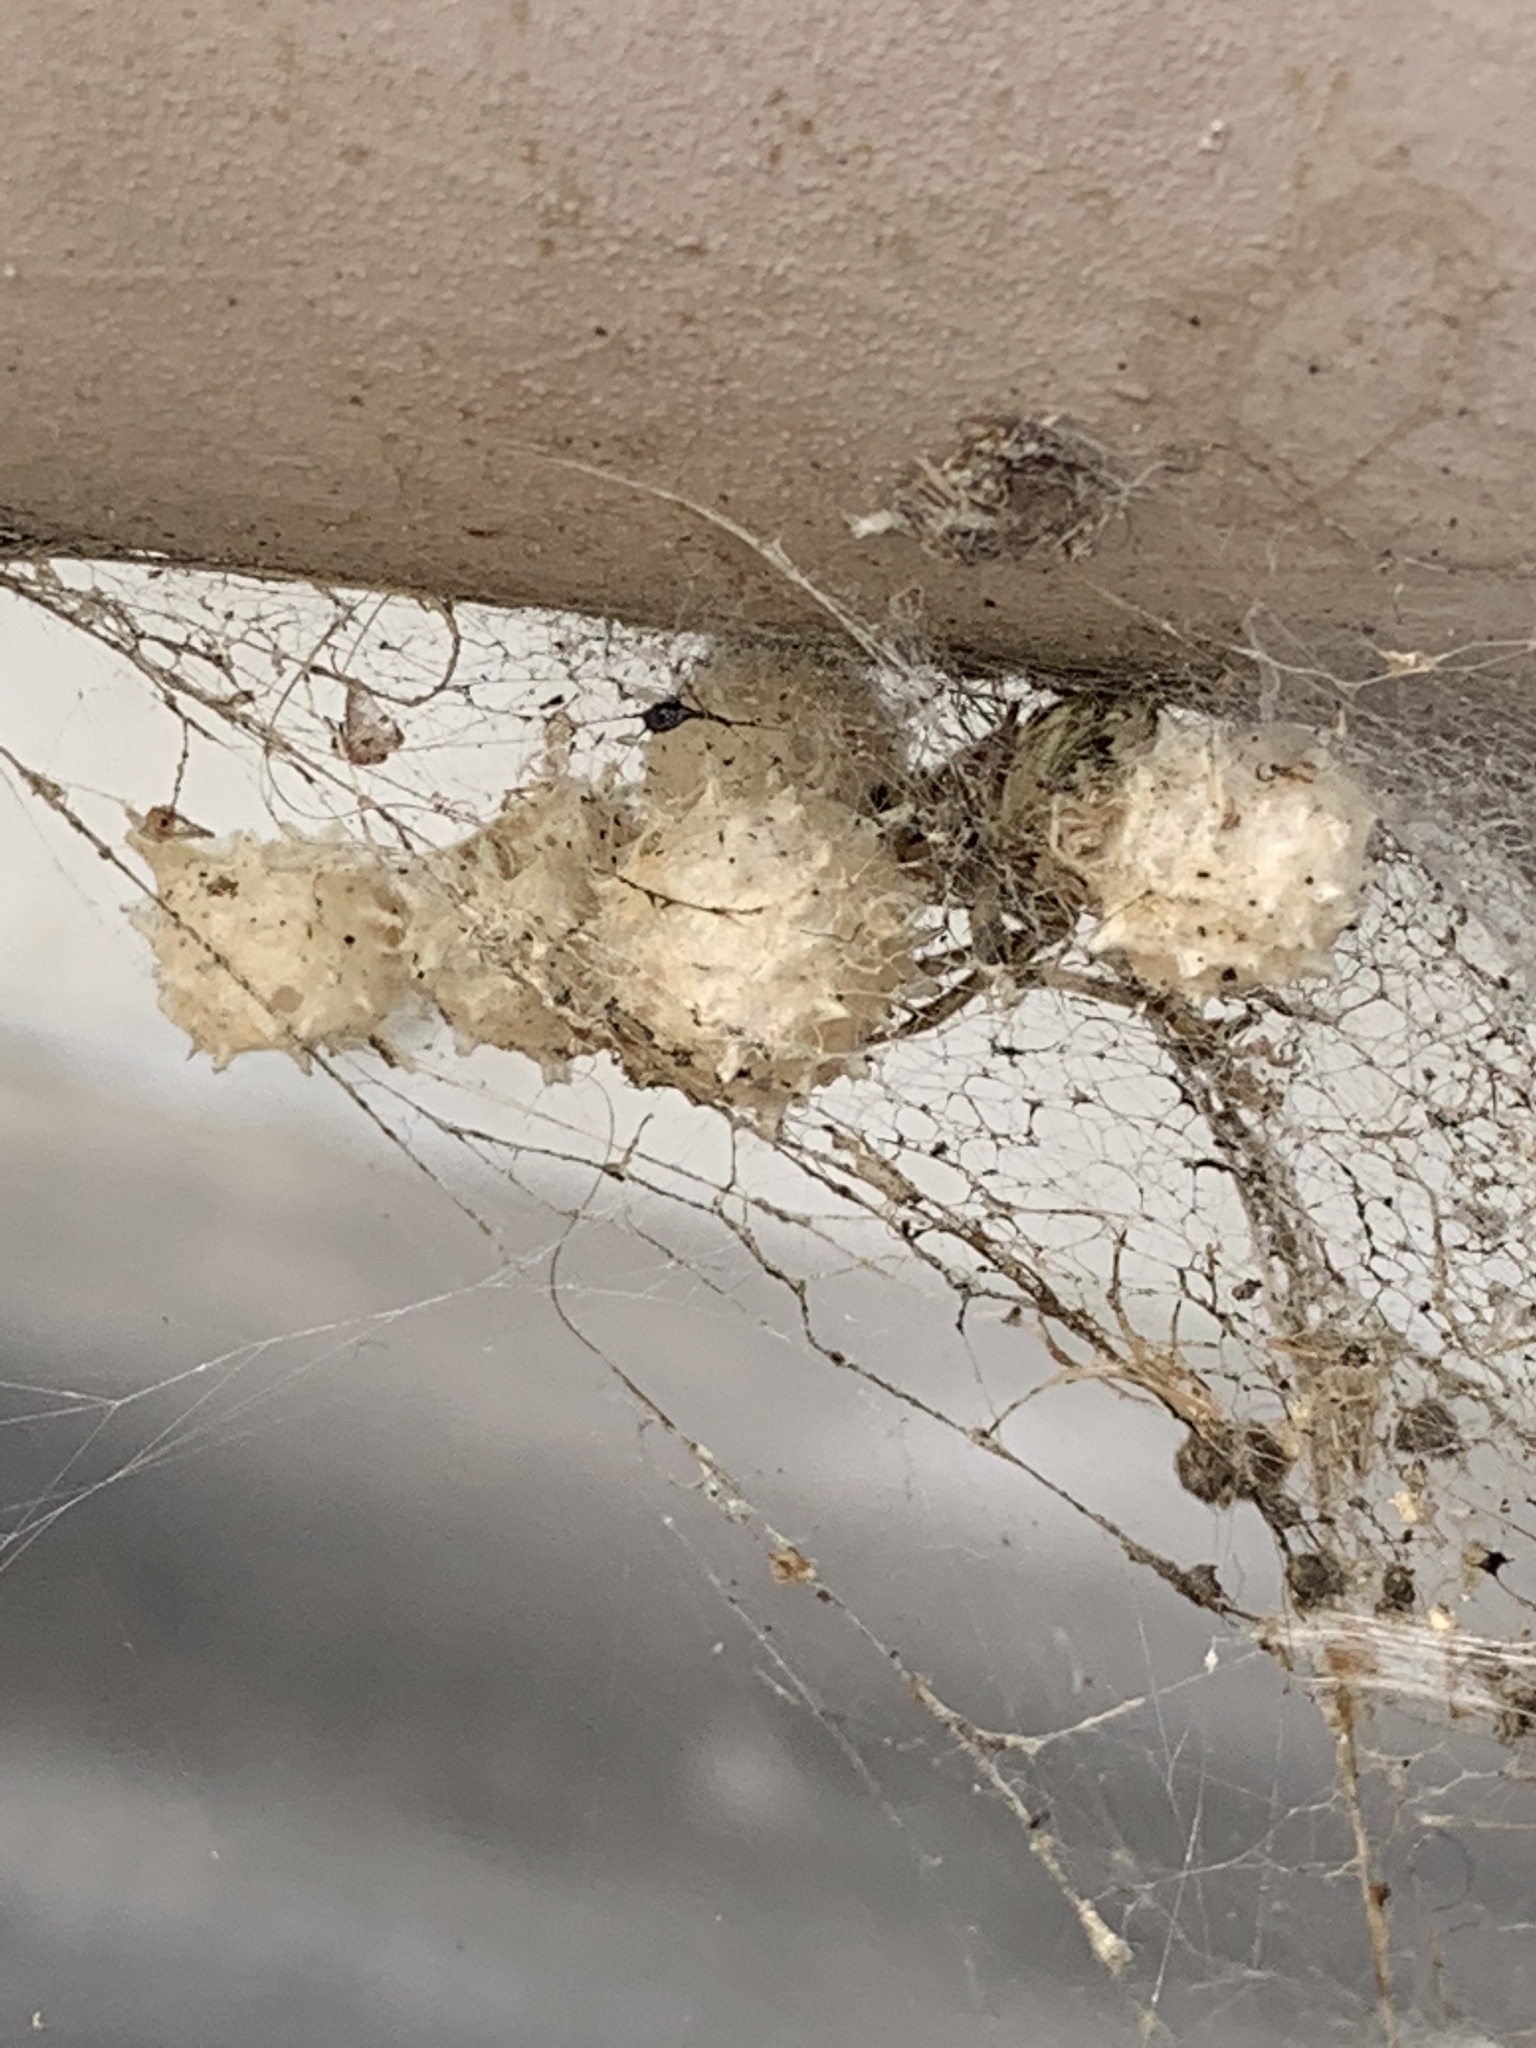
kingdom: Animalia
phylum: Arthropoda
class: Arachnida
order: Araneae
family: Theridiidae
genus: Latrodectus
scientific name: Latrodectus geometricus
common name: Brown widow spider
